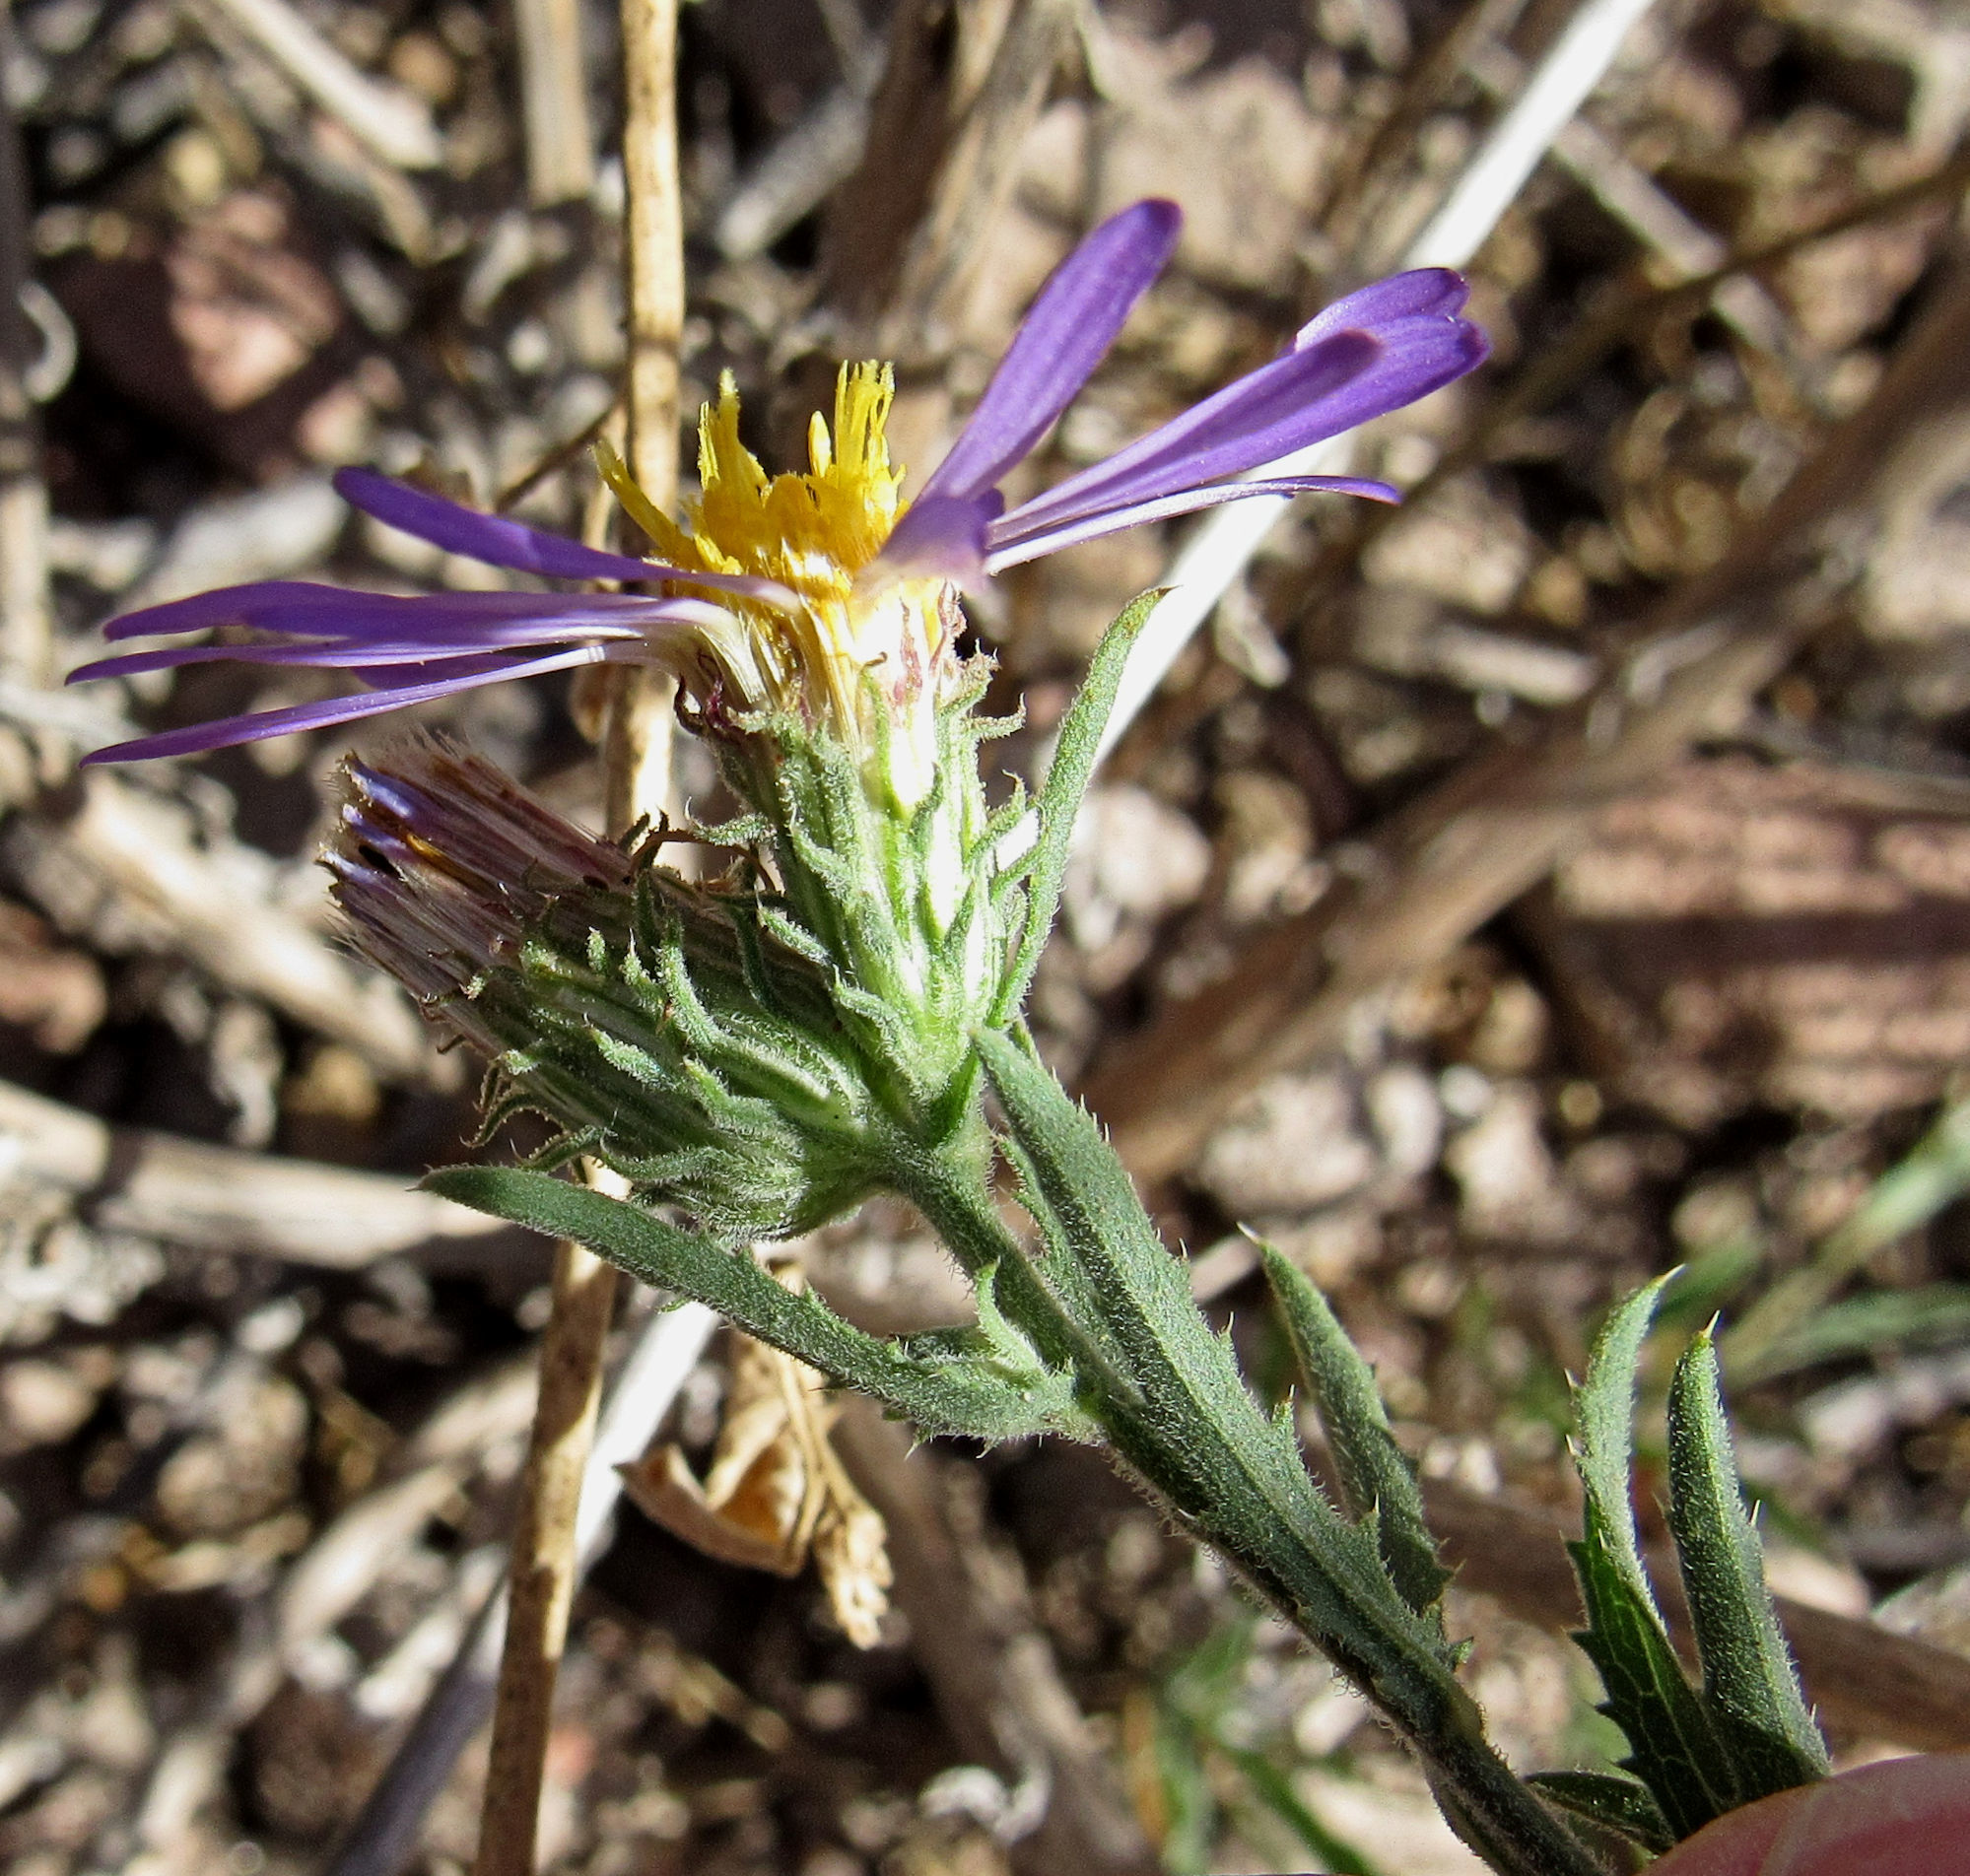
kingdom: Plantae
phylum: Tracheophyta
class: Magnoliopsida
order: Asterales
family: Asteraceae
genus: Dieteria
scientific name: Dieteria asteroides
